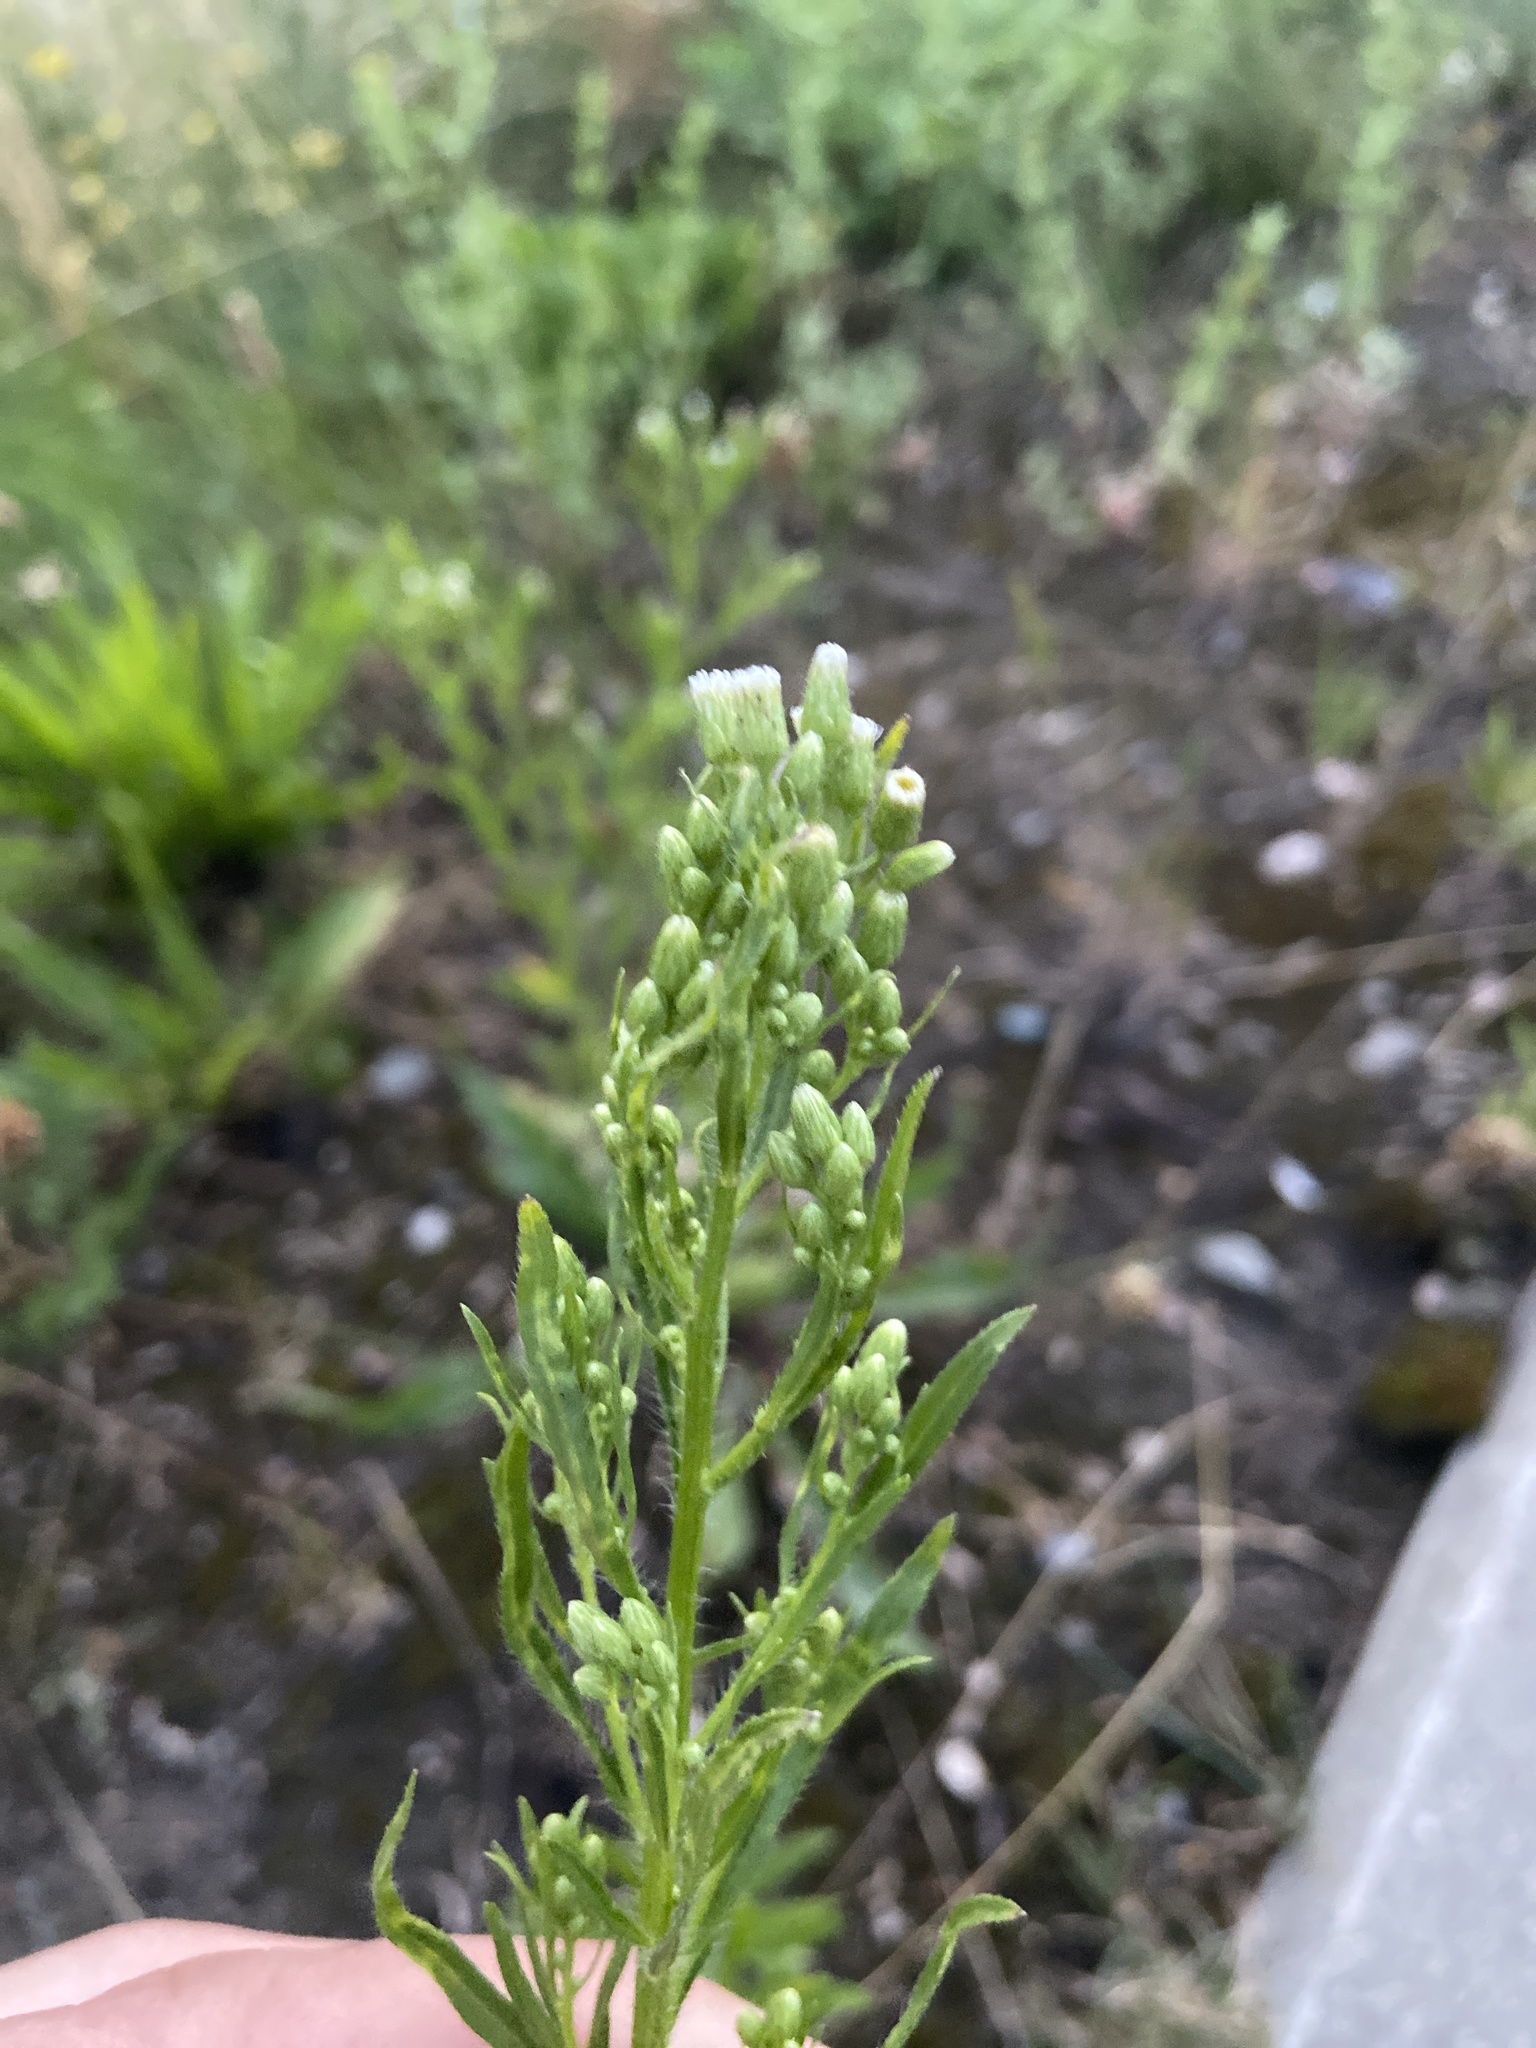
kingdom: Plantae
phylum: Tracheophyta
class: Magnoliopsida
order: Asterales
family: Asteraceae
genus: Erigeron
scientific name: Erigeron canadensis
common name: Canadian fleabane
